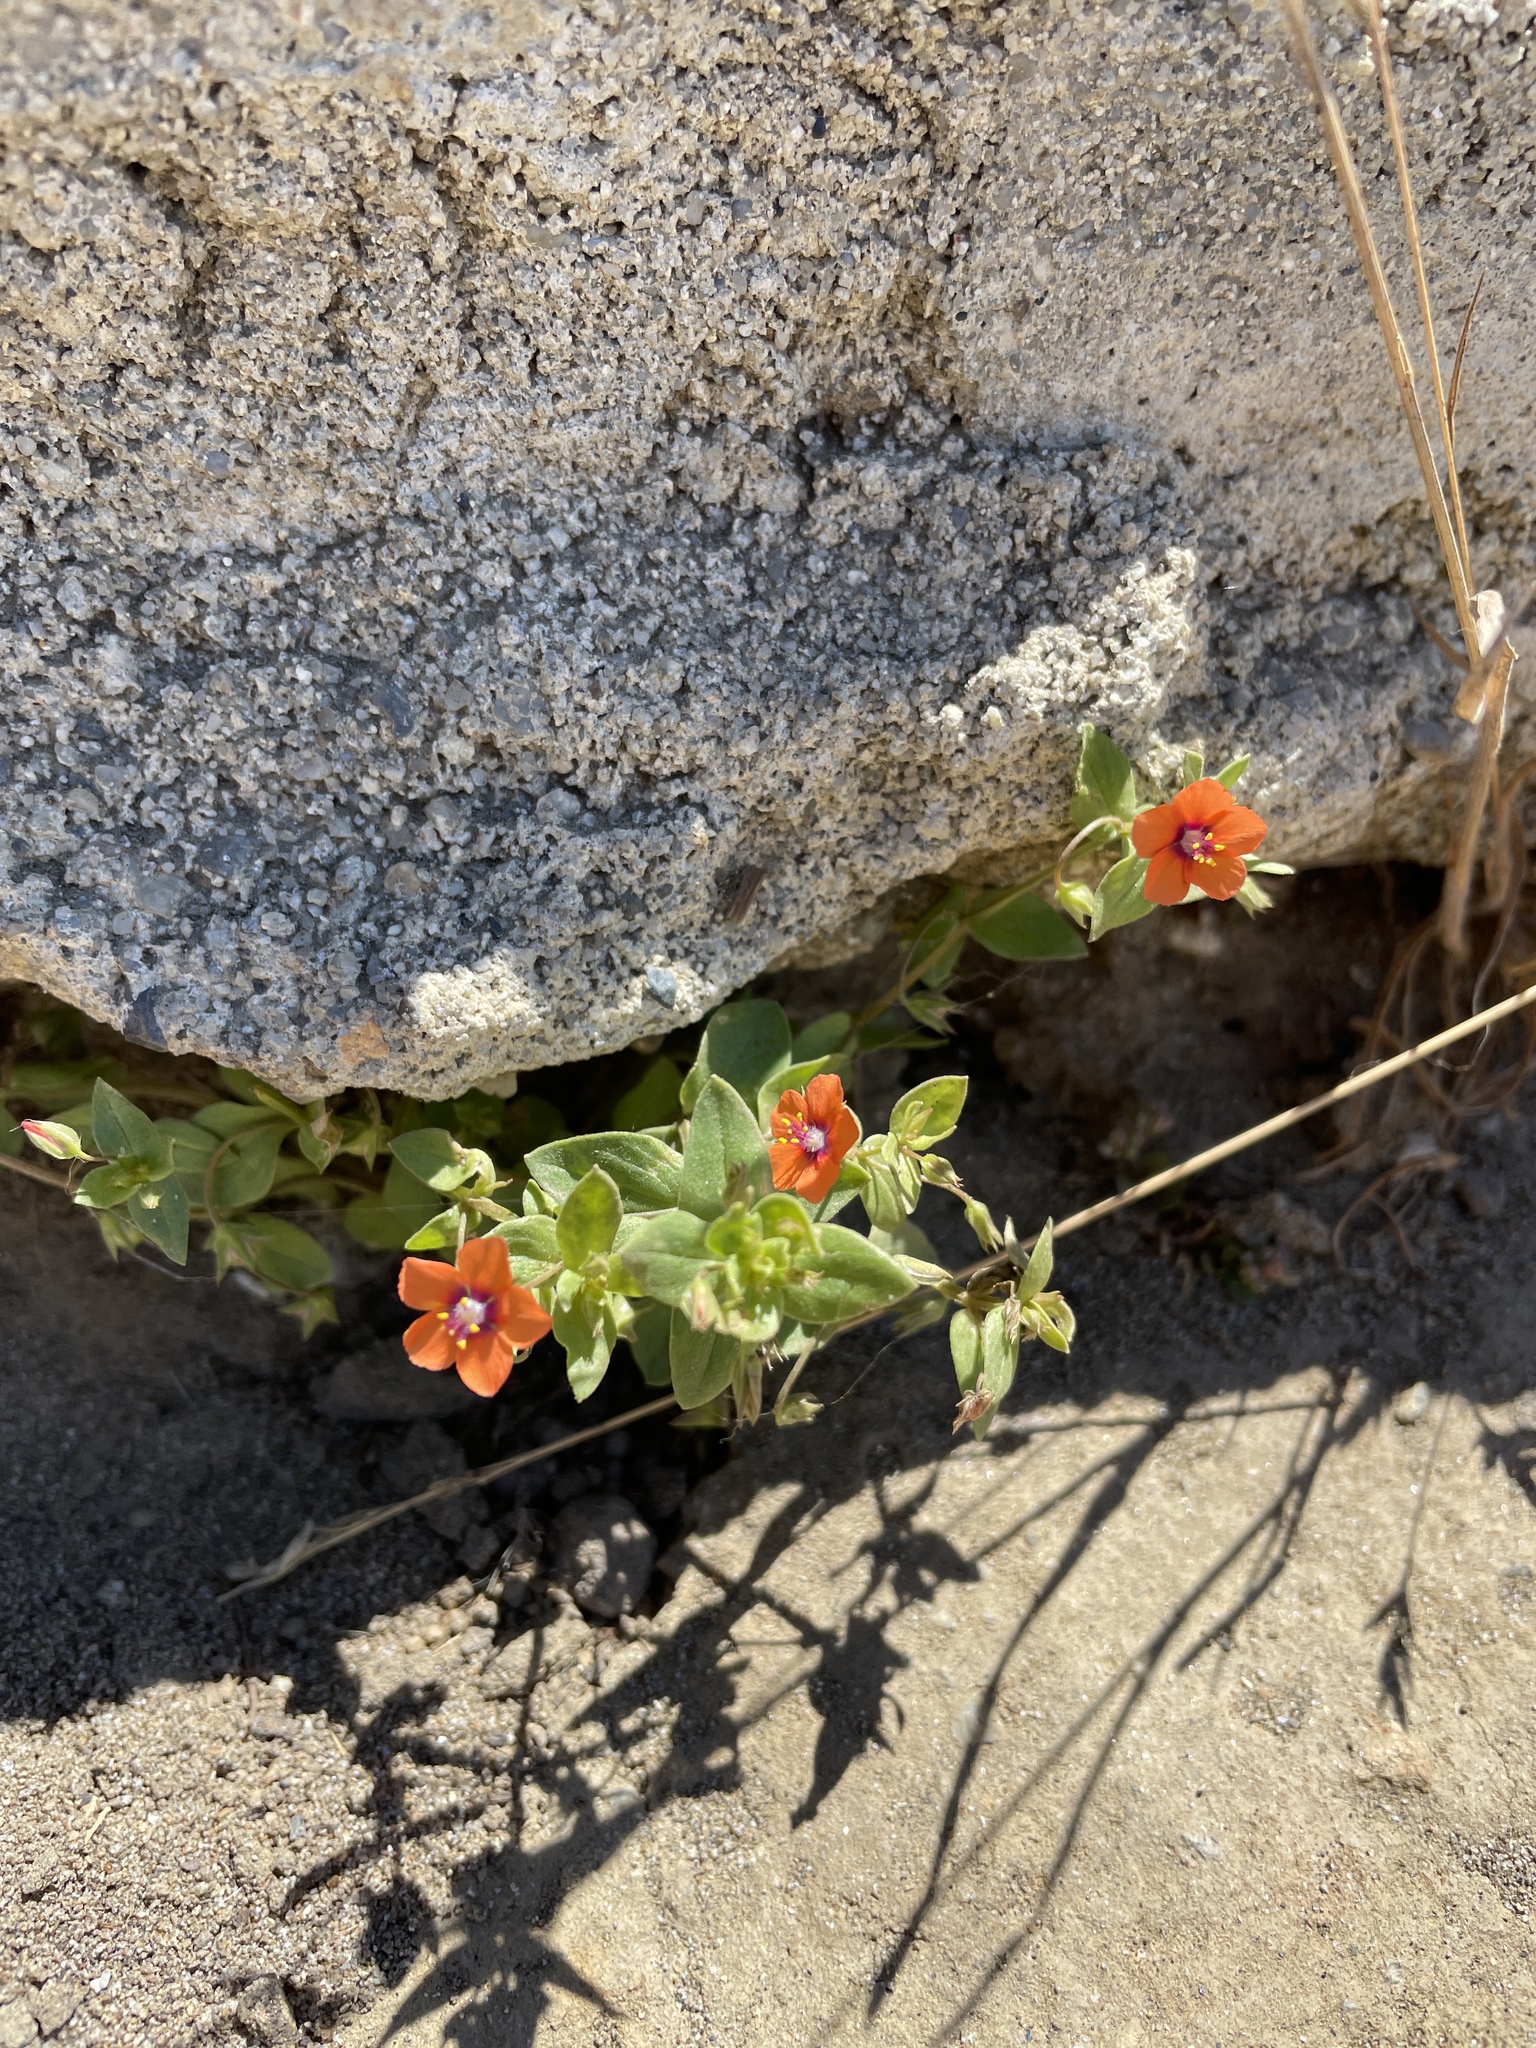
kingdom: Plantae
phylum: Tracheophyta
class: Magnoliopsida
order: Ericales
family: Primulaceae
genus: Lysimachia
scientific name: Lysimachia arvensis
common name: Scarlet pimpernel
